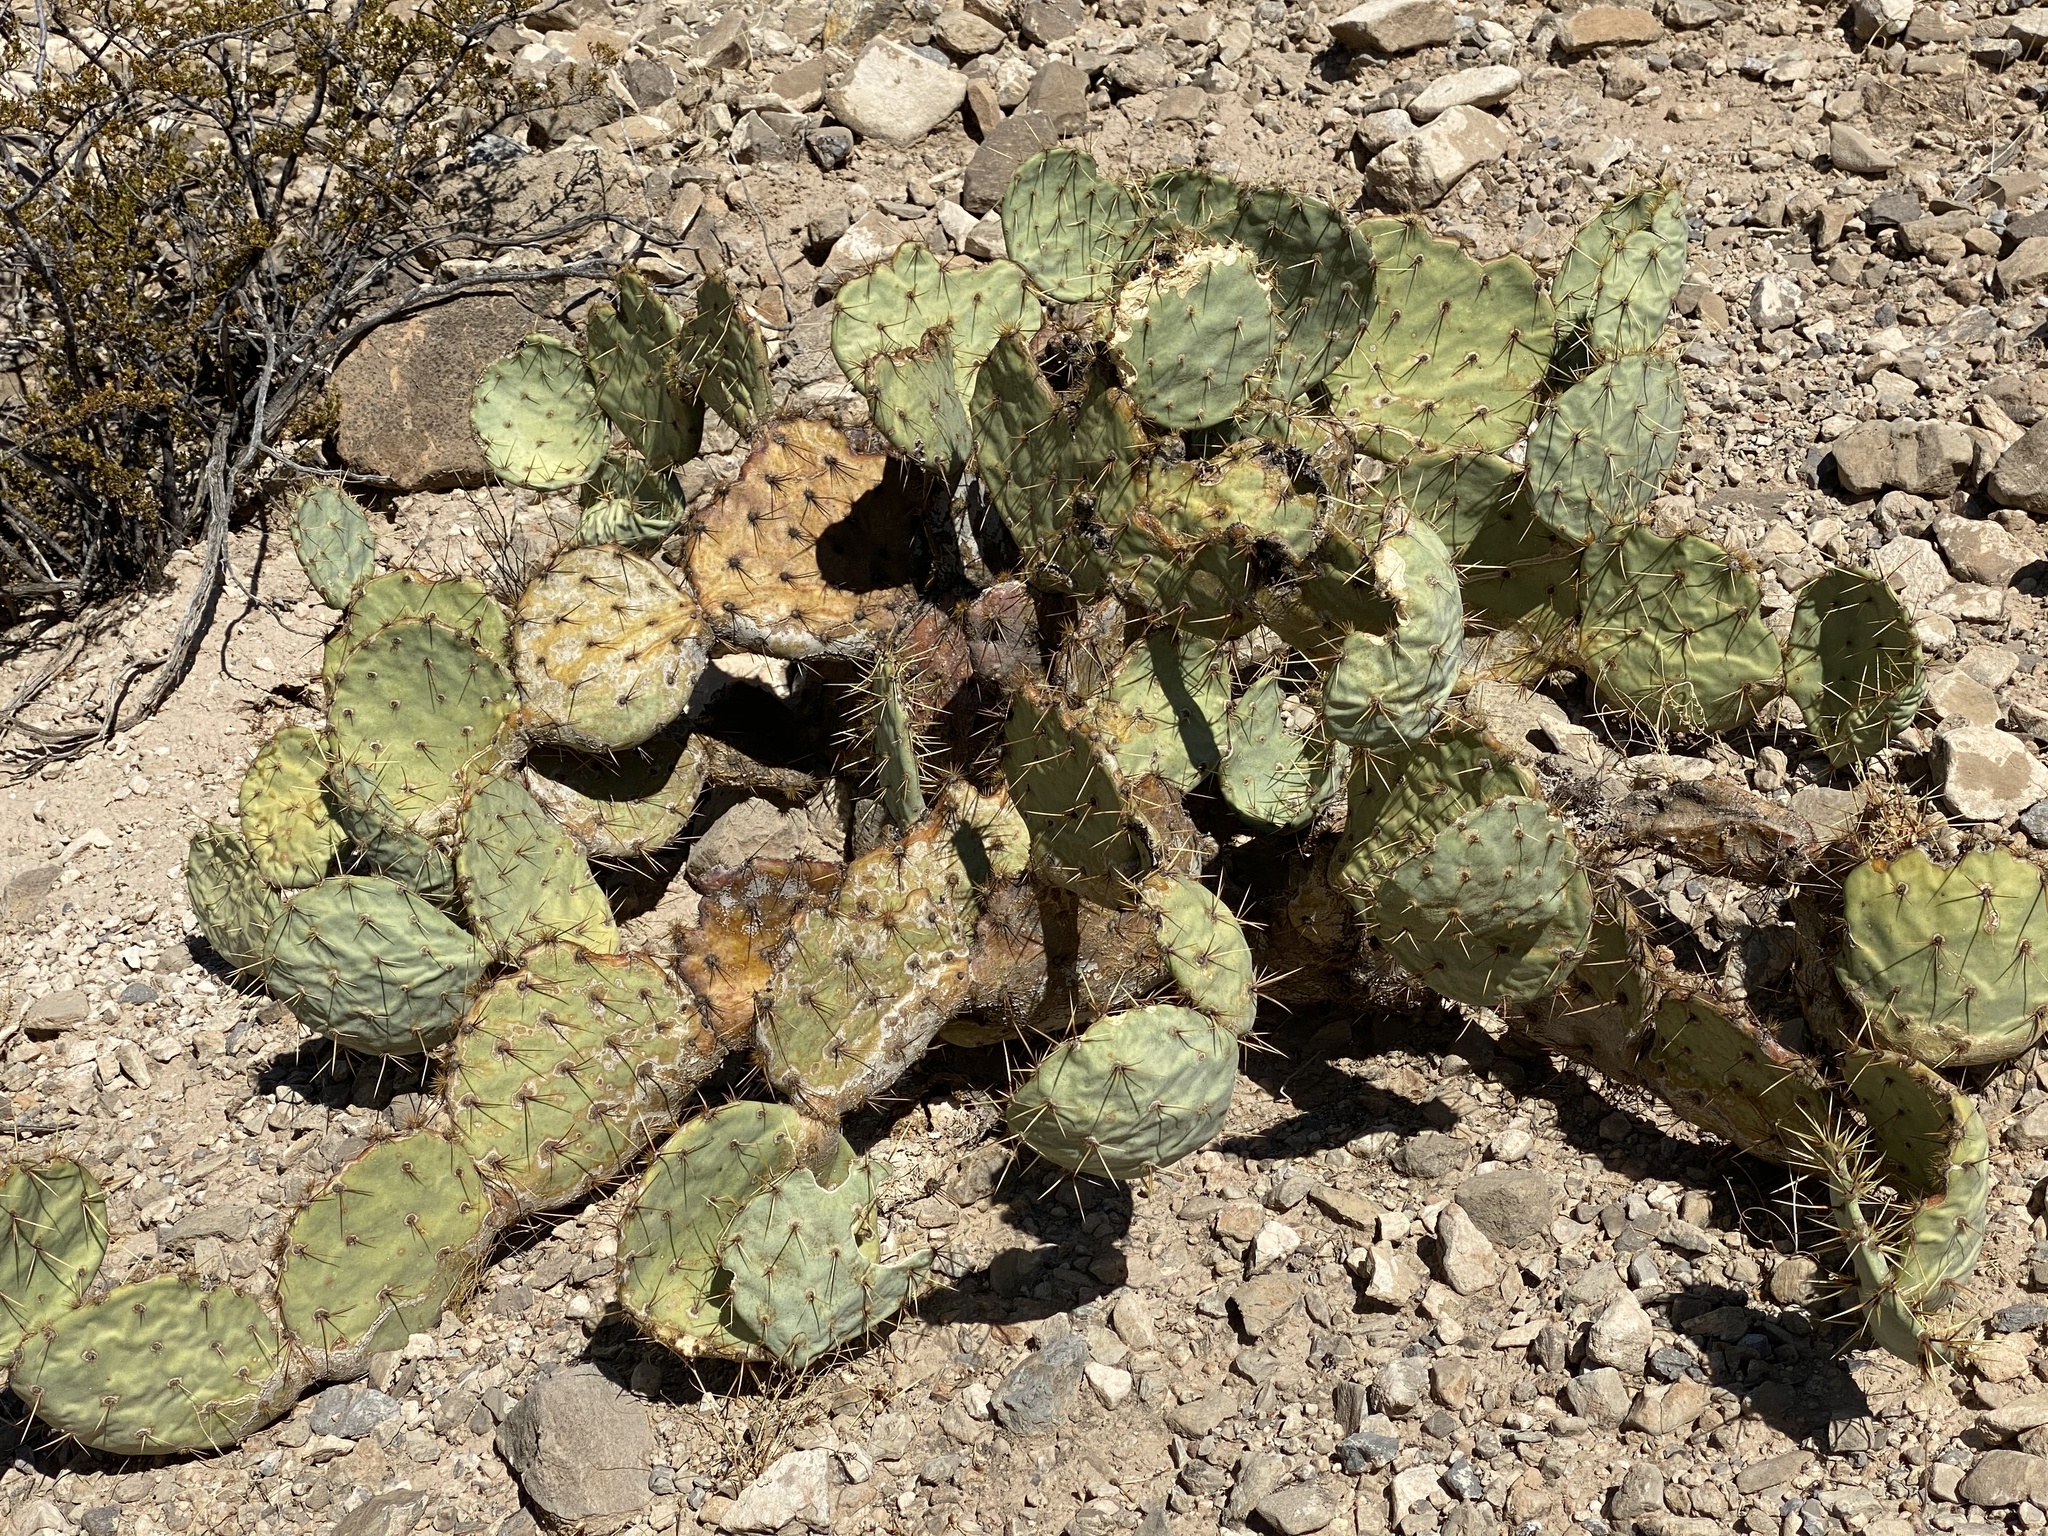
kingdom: Plantae
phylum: Tracheophyta
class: Magnoliopsida
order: Caryophyllales
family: Cactaceae
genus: Opuntia
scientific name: Opuntia phaeacantha
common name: New mexico prickly-pear
